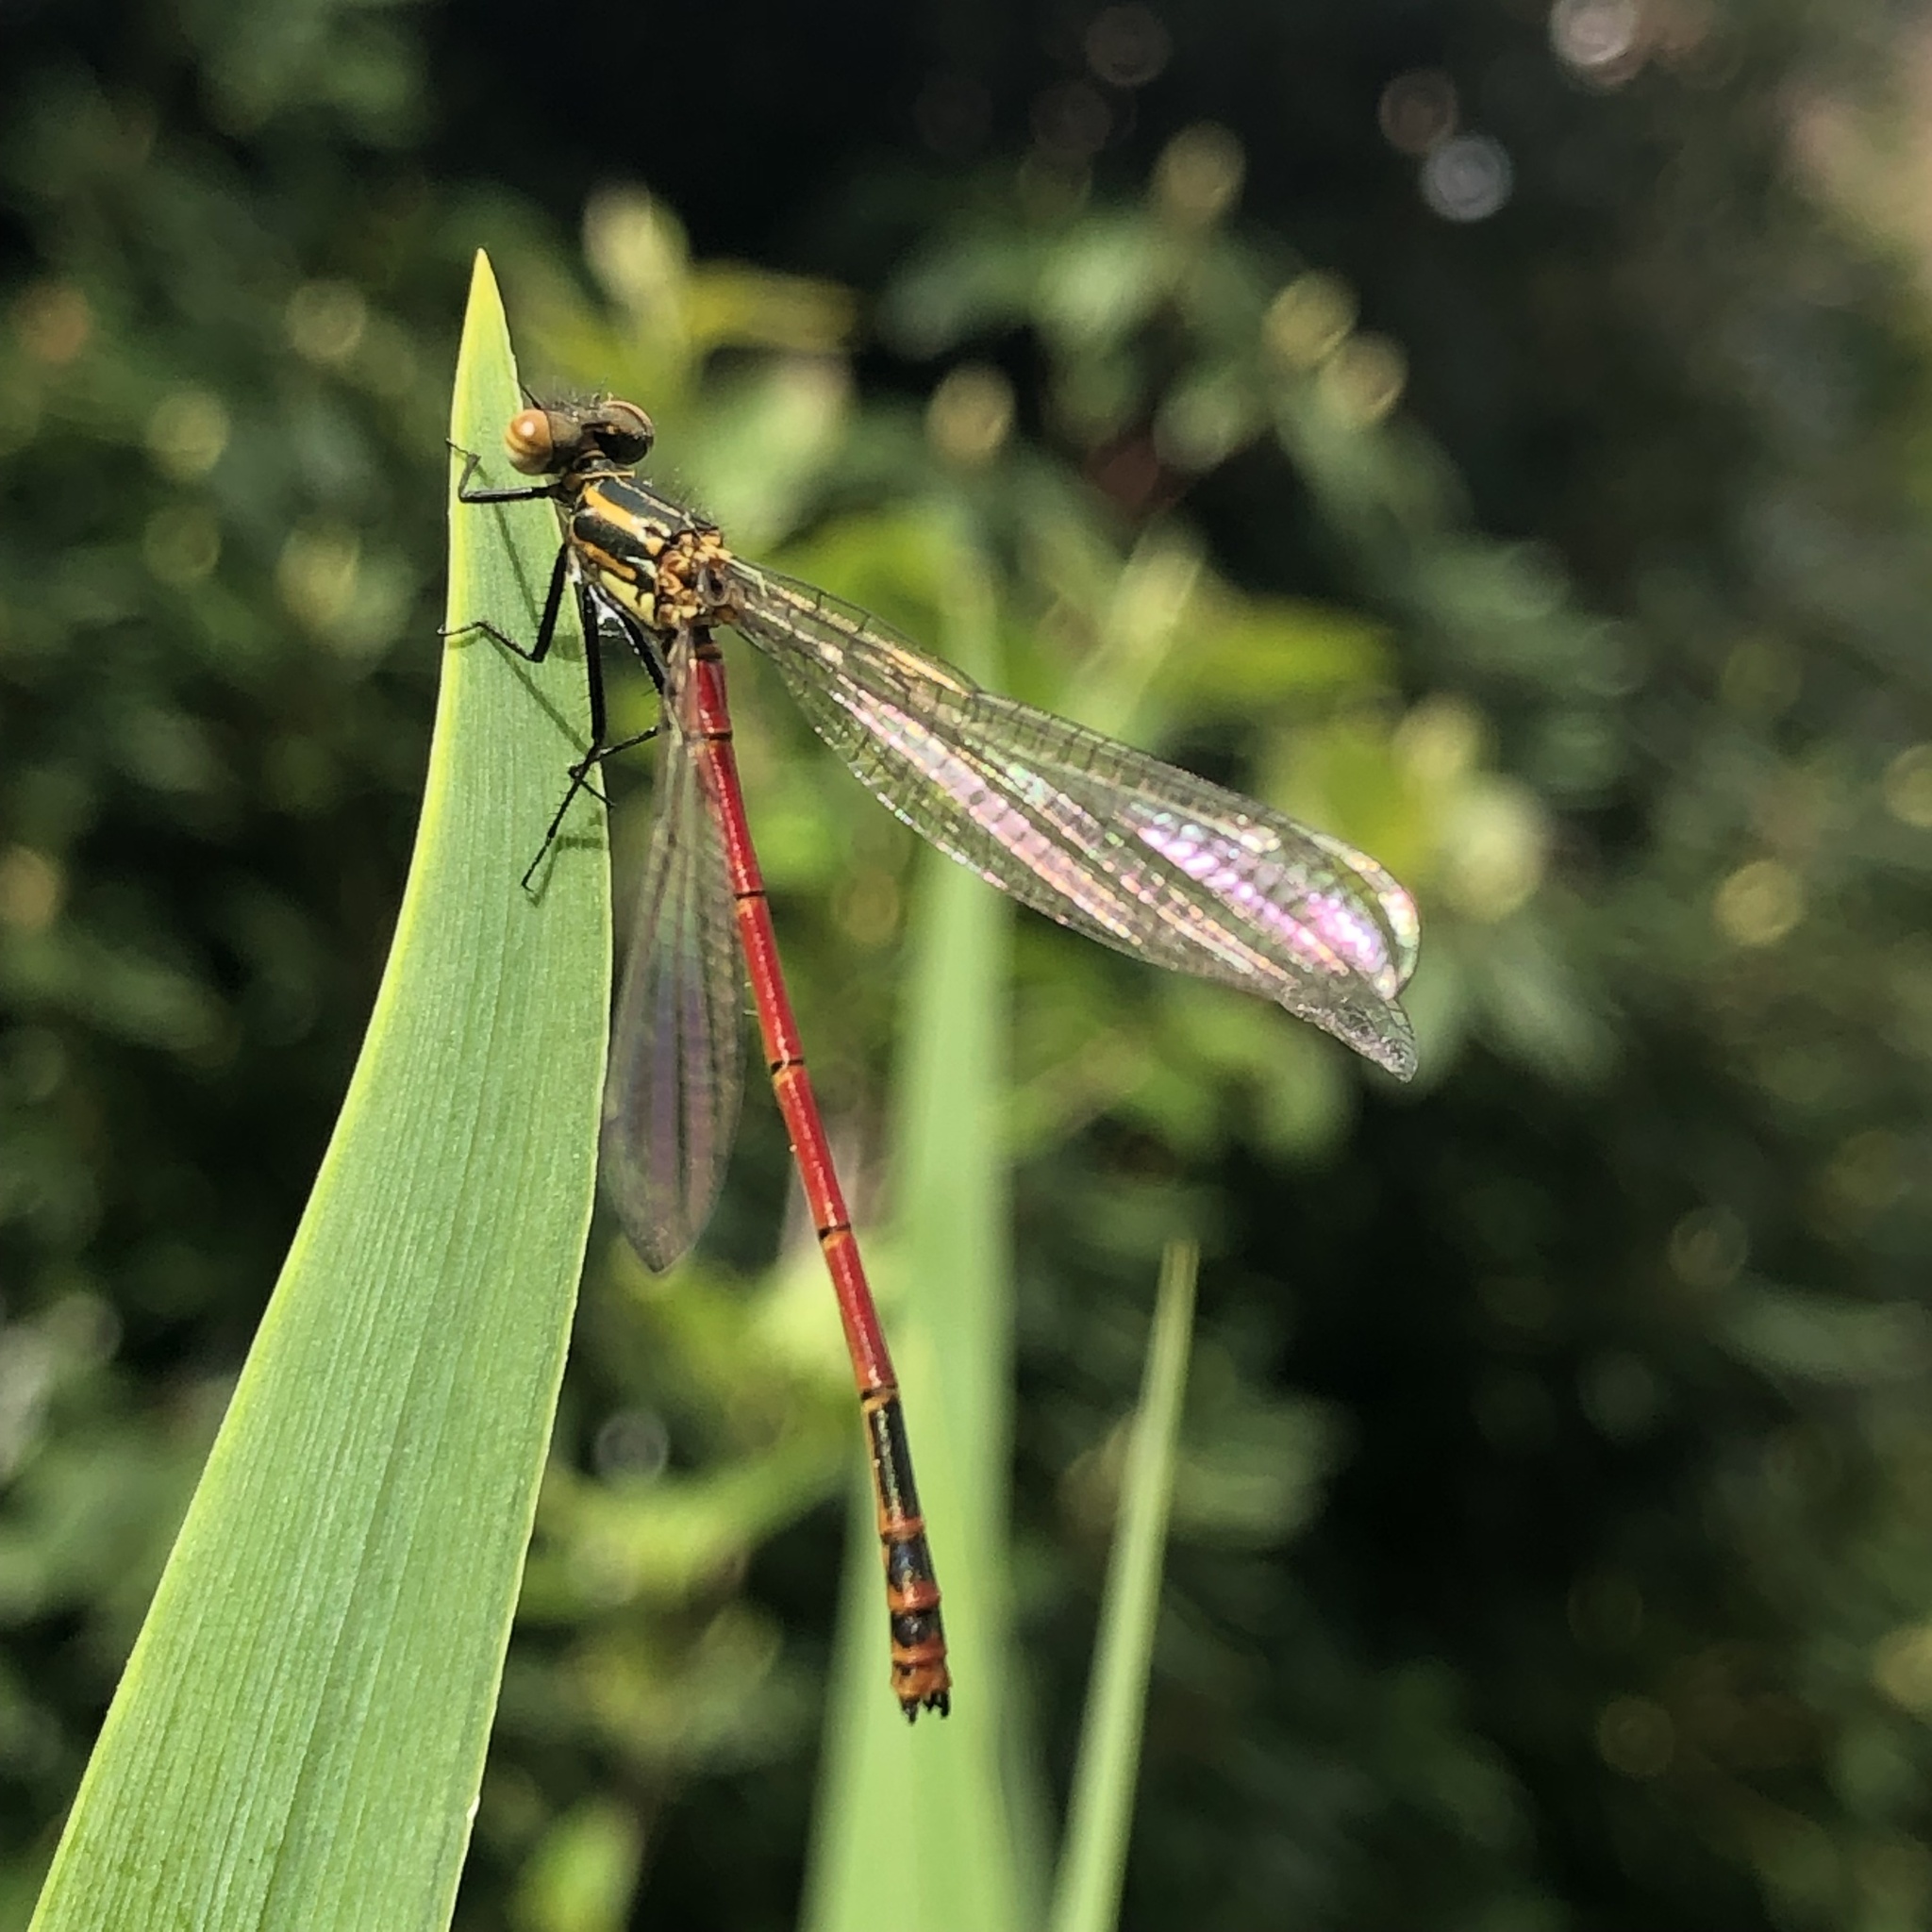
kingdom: Animalia
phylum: Arthropoda
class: Insecta
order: Odonata
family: Coenagrionidae
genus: Pyrrhosoma
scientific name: Pyrrhosoma nymphula
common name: Large red damsel
